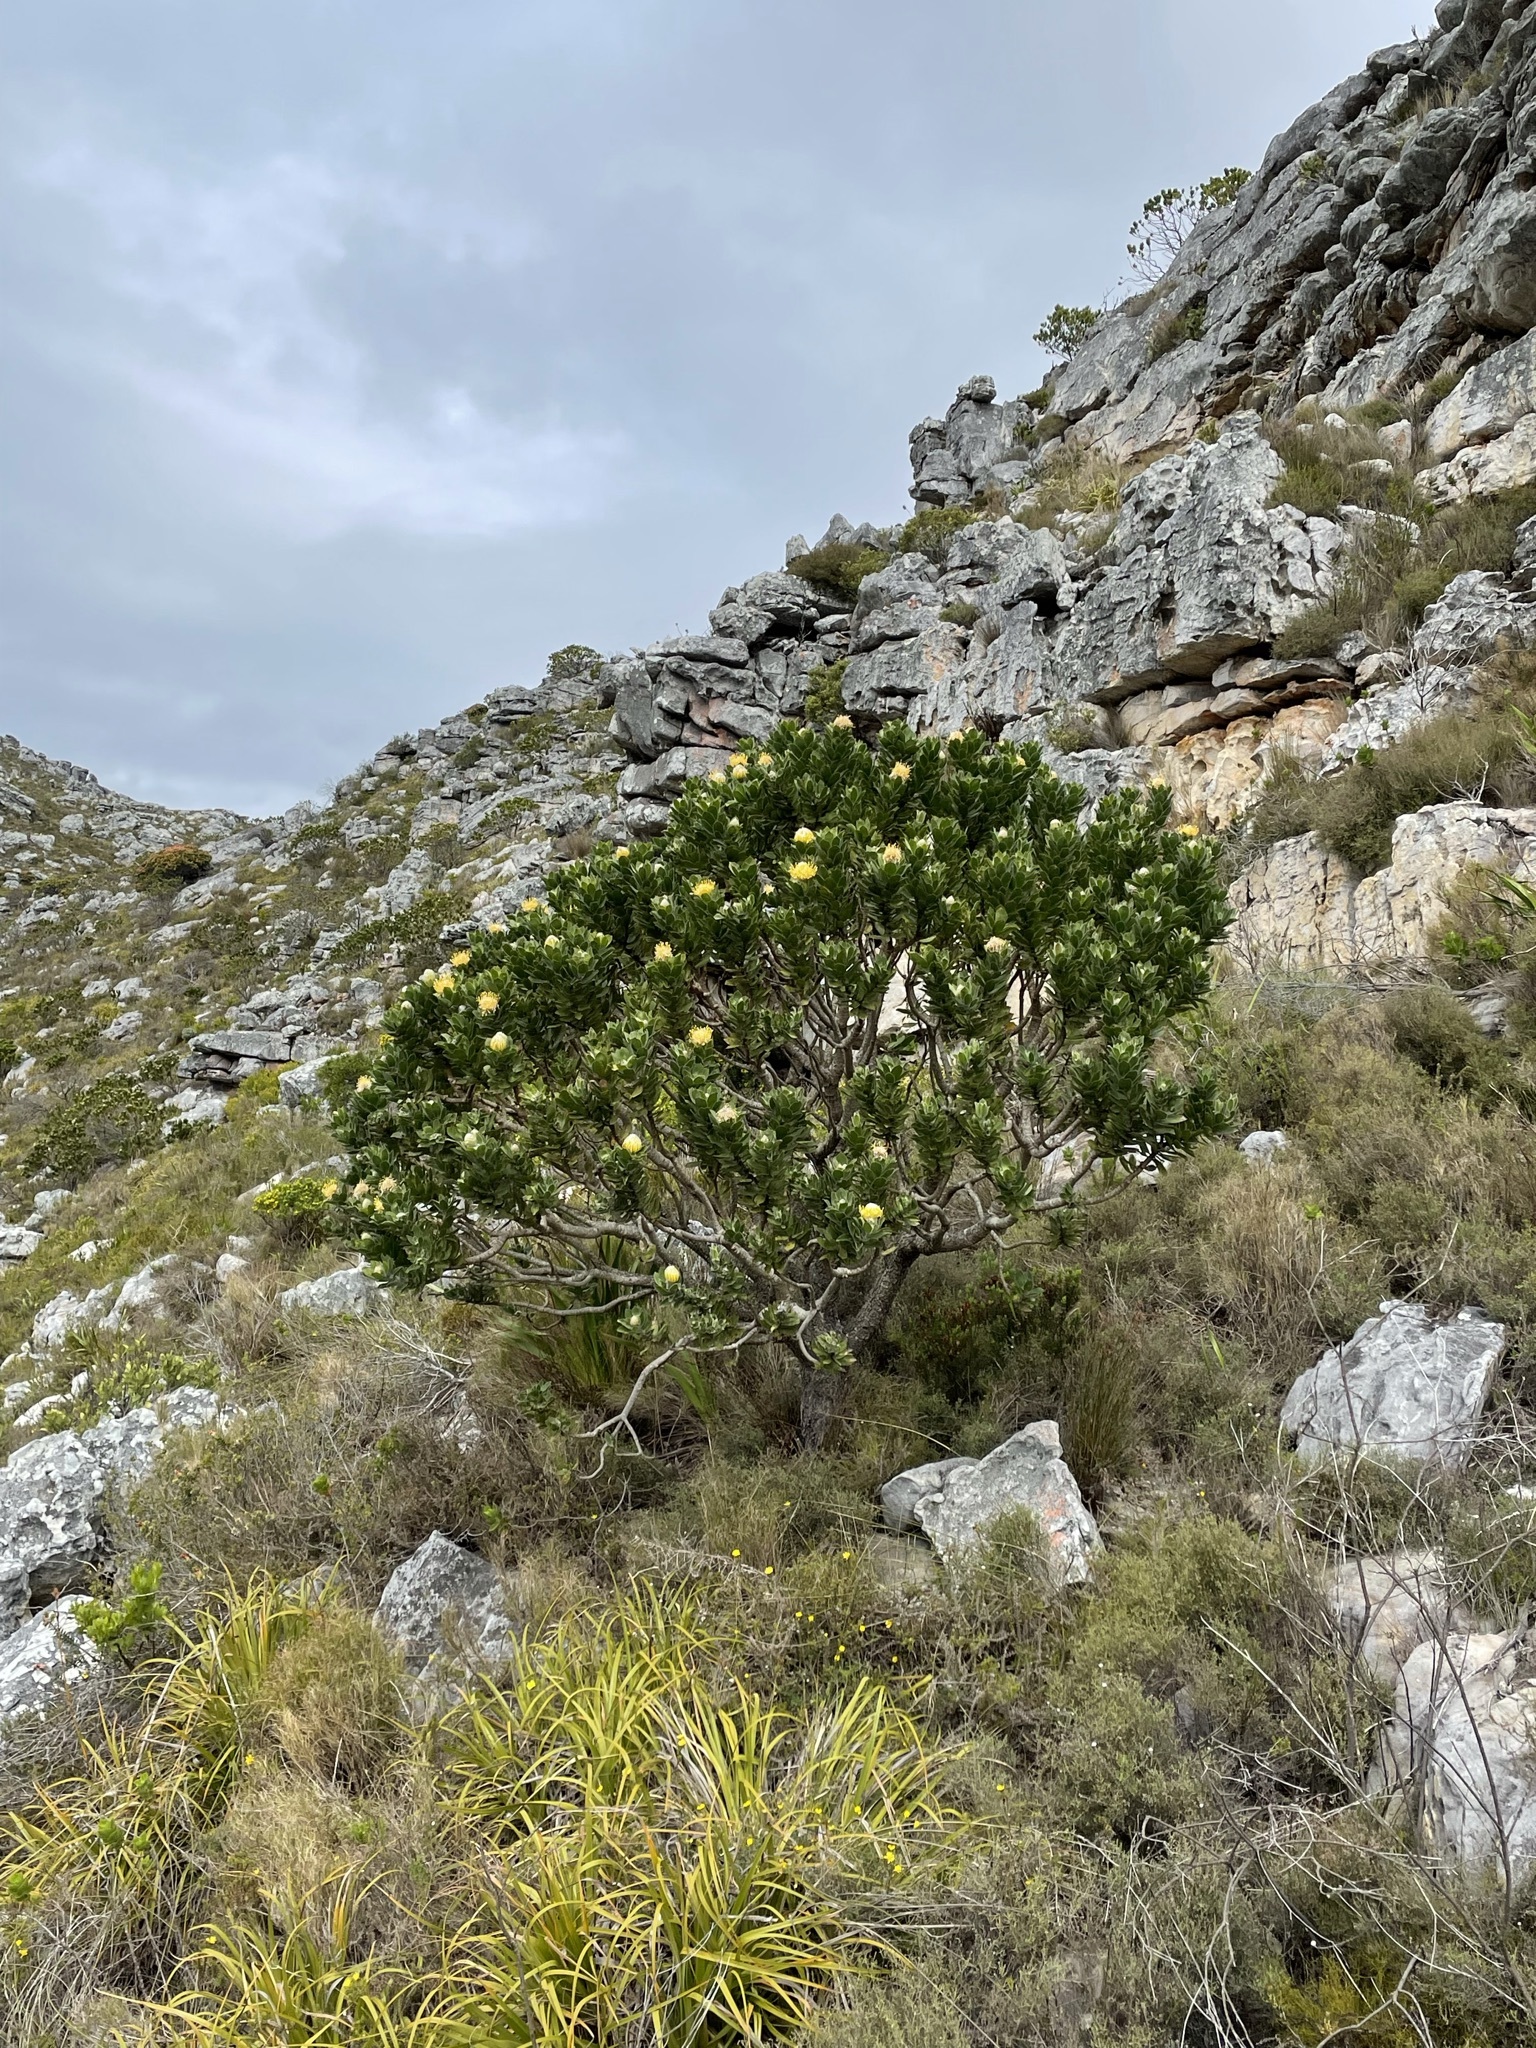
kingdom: Plantae
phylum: Tracheophyta
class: Magnoliopsida
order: Proteales
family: Proteaceae
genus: Leucospermum
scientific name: Leucospermum conocarpodendron
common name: Tree pincushion
